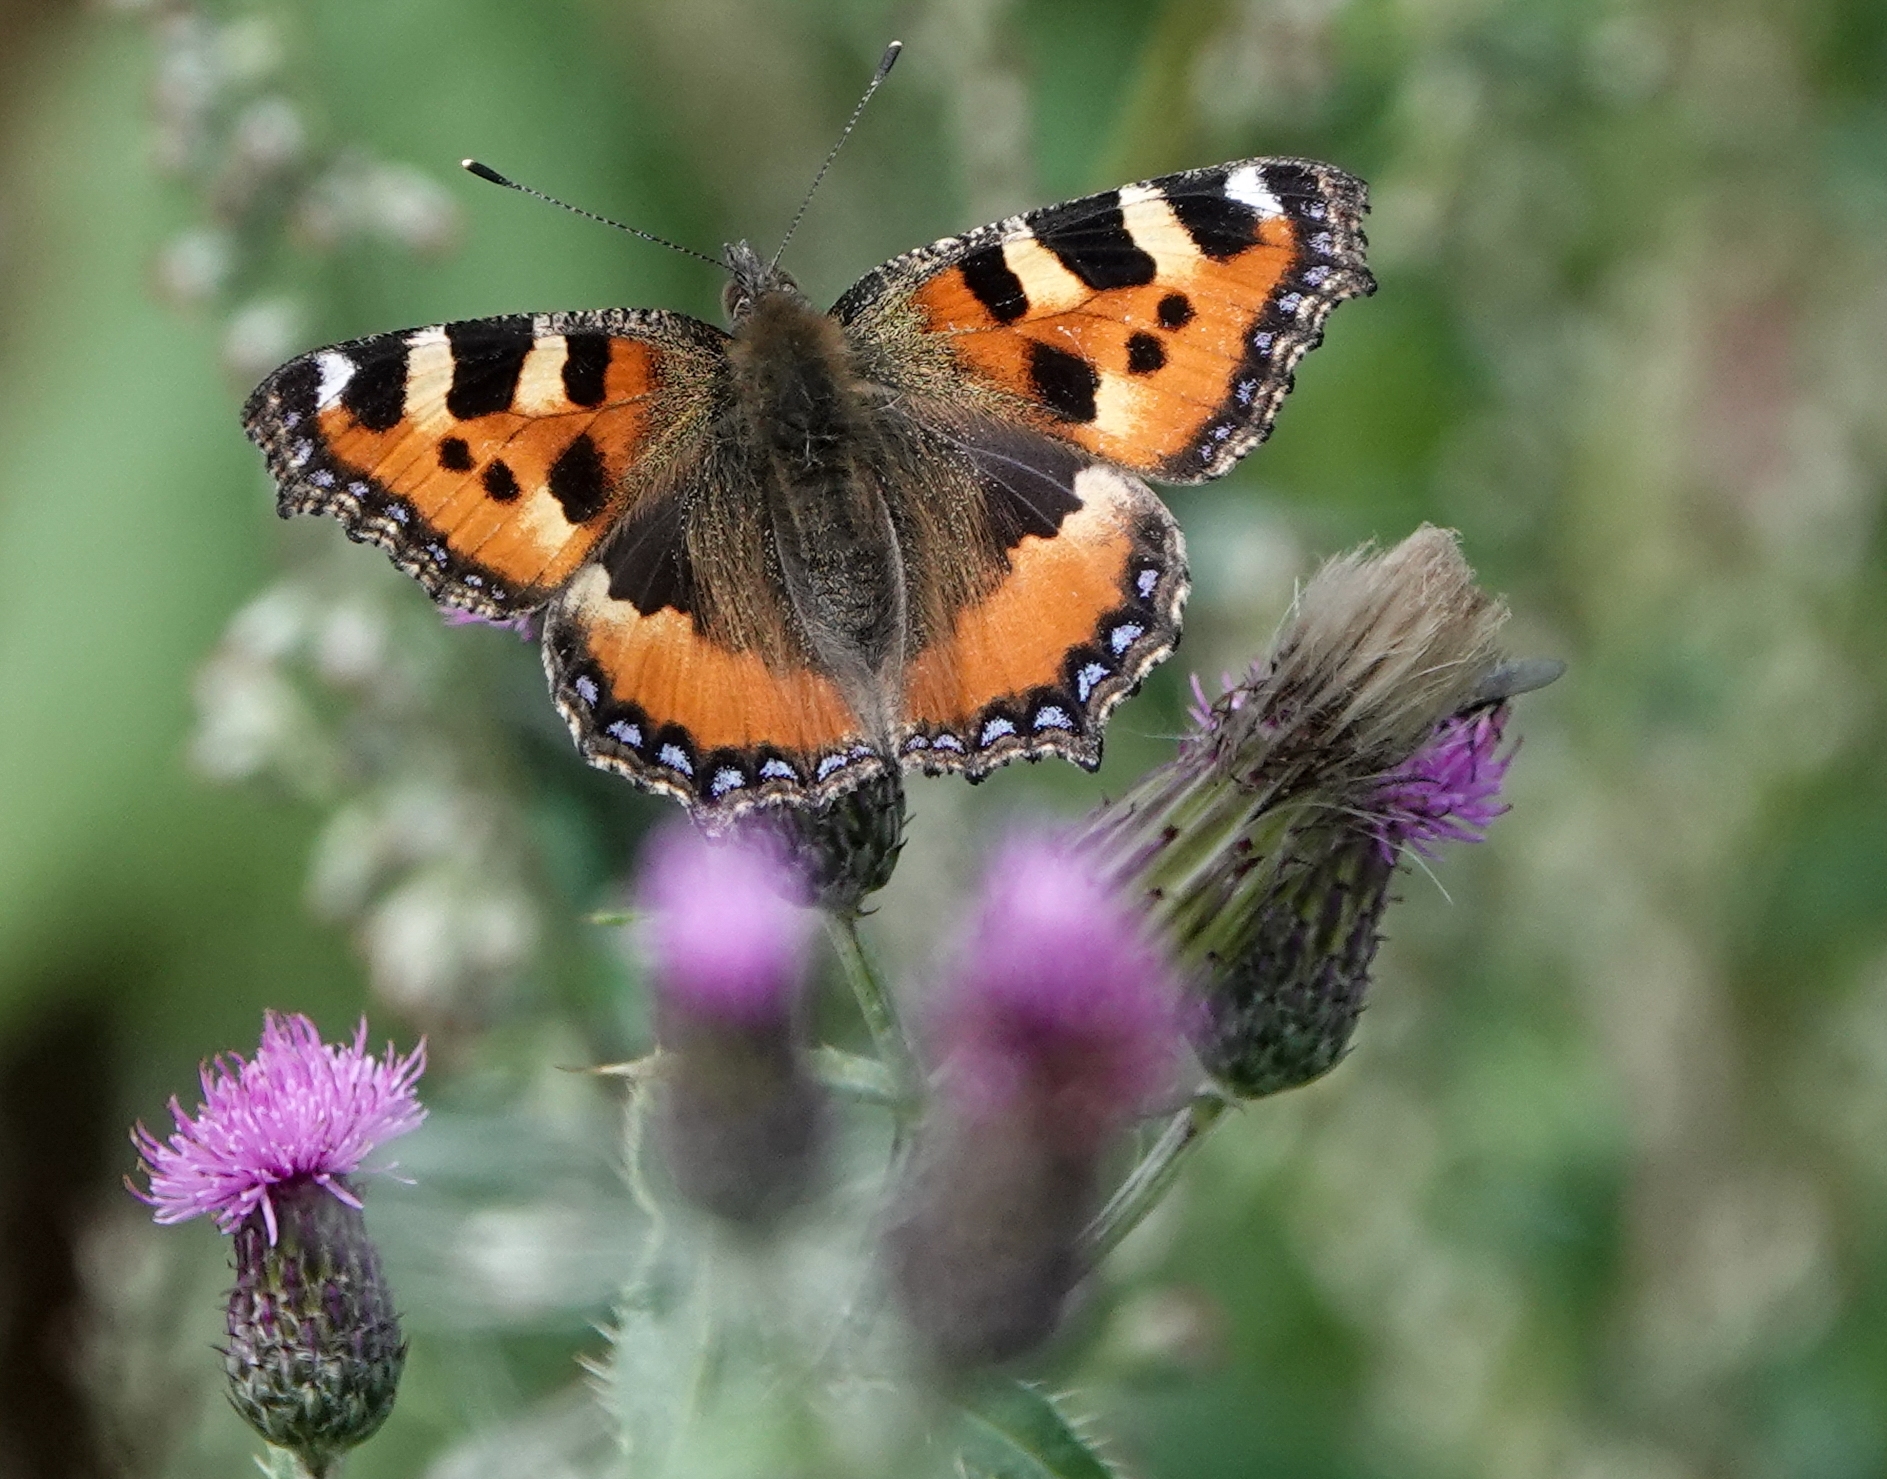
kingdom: Animalia
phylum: Arthropoda
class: Insecta
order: Lepidoptera
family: Nymphalidae
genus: Aglais
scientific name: Aglais urticae
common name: Small tortoiseshell
